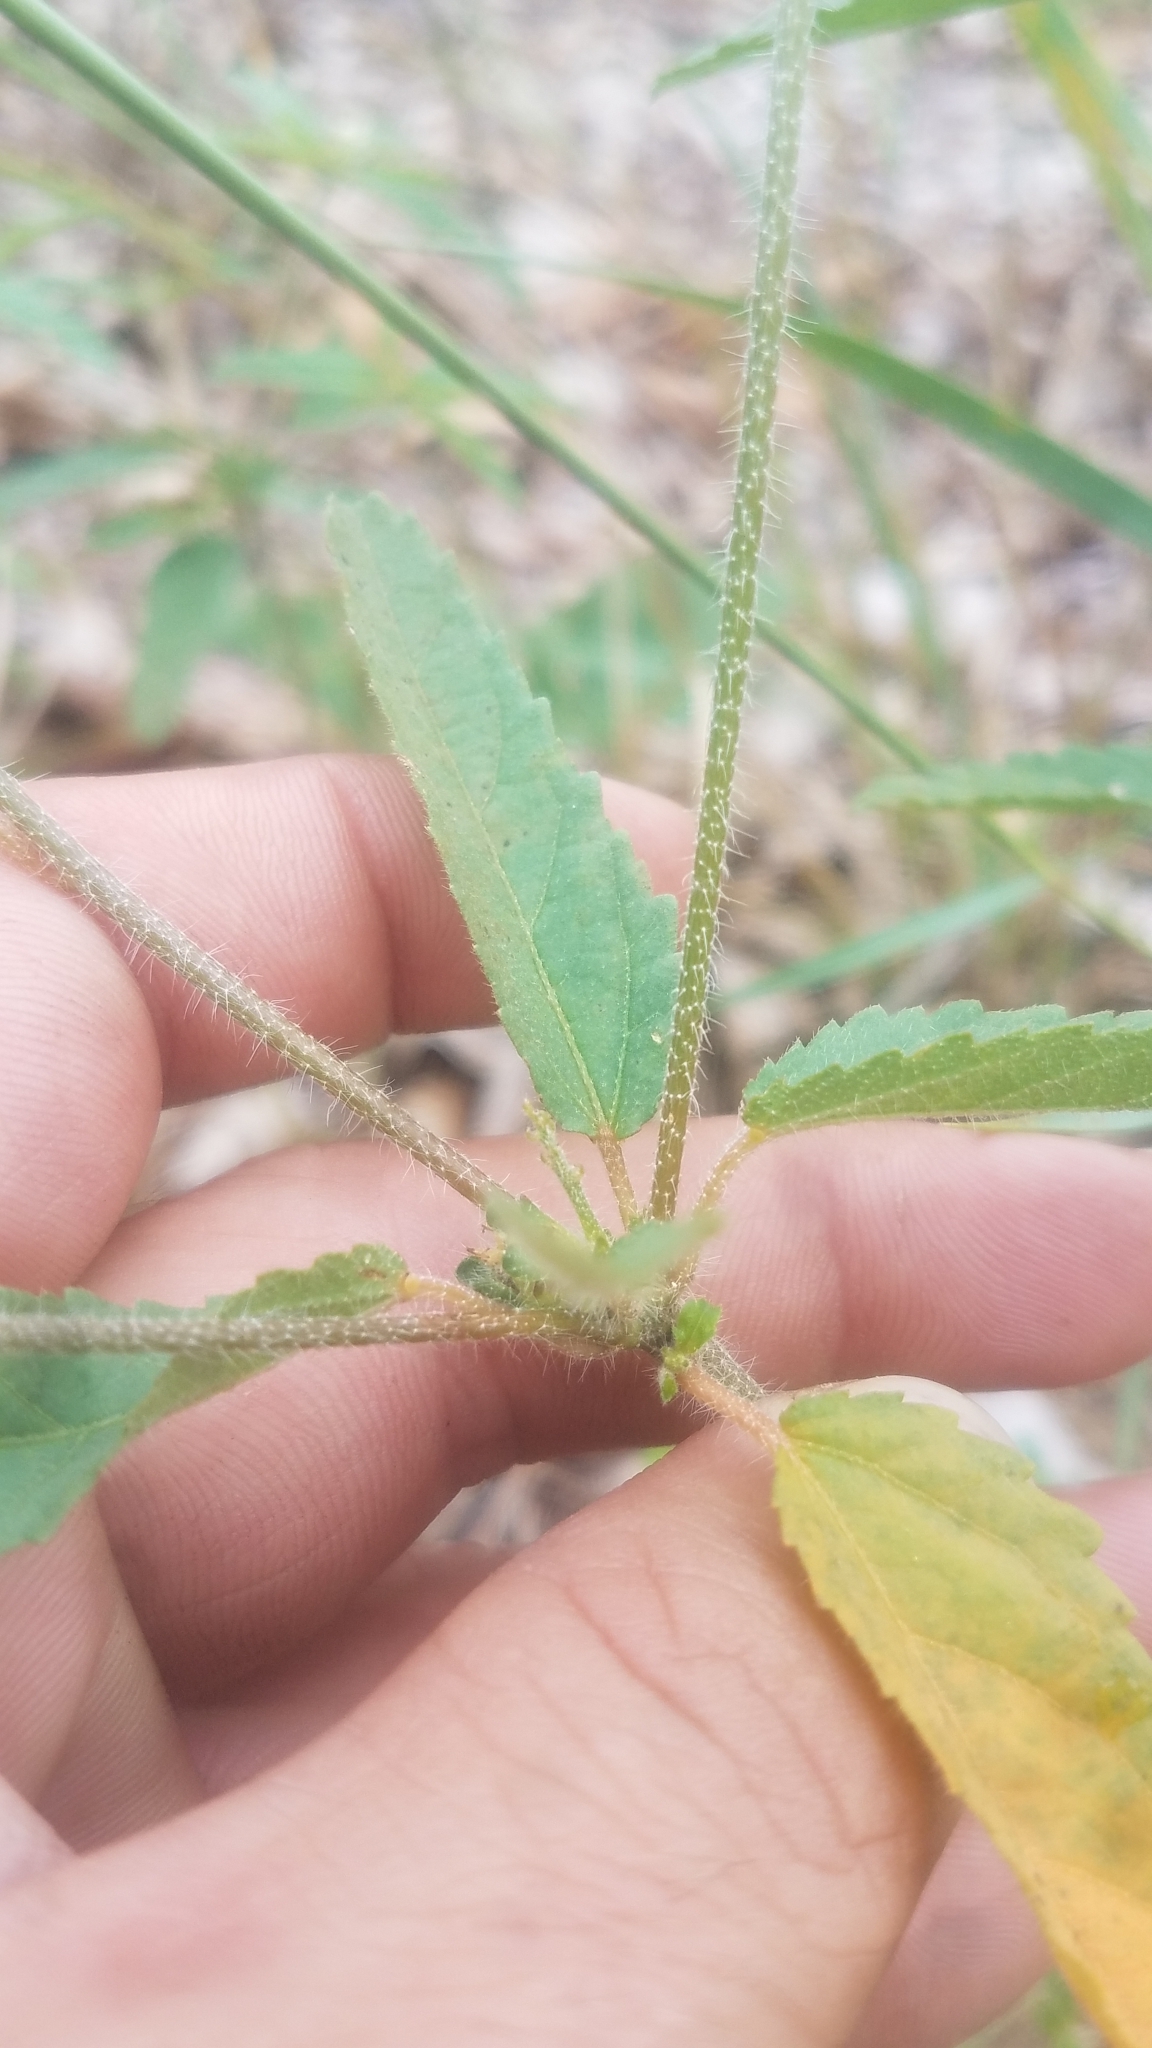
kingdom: Plantae
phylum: Tracheophyta
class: Magnoliopsida
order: Malpighiales
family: Euphorbiaceae
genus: Croton
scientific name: Croton glandulosus
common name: Tropic croton
